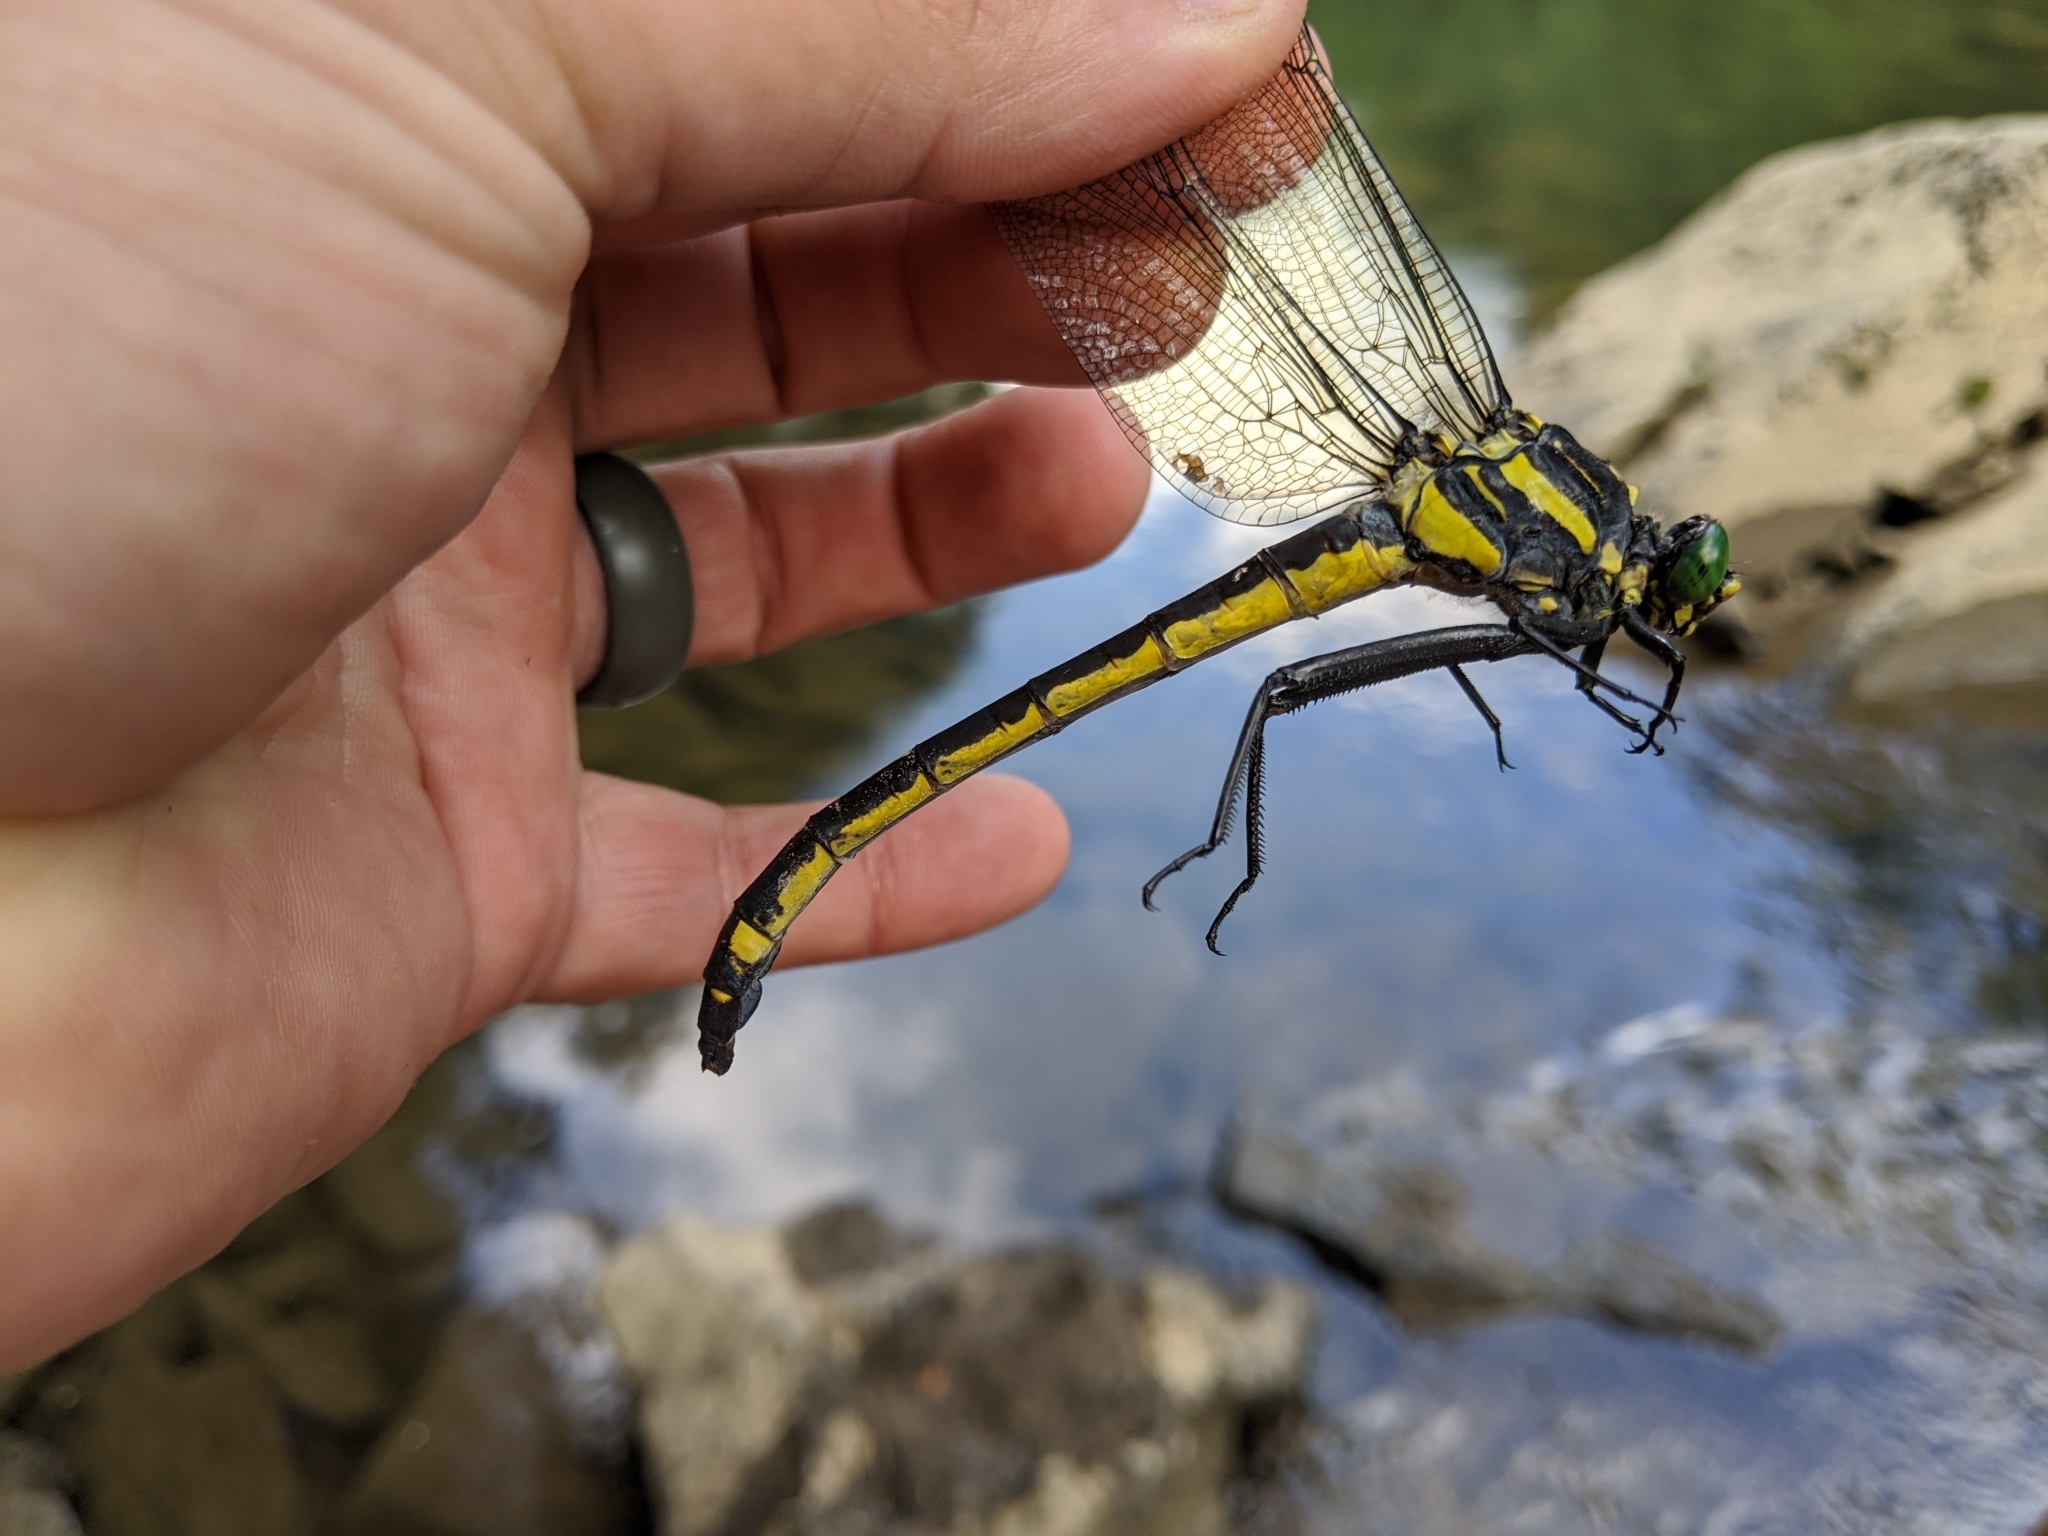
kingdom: Animalia
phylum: Arthropoda
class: Insecta
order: Odonata
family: Gomphidae
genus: Hagenius
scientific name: Hagenius brevistylus
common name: Dragonhunter
